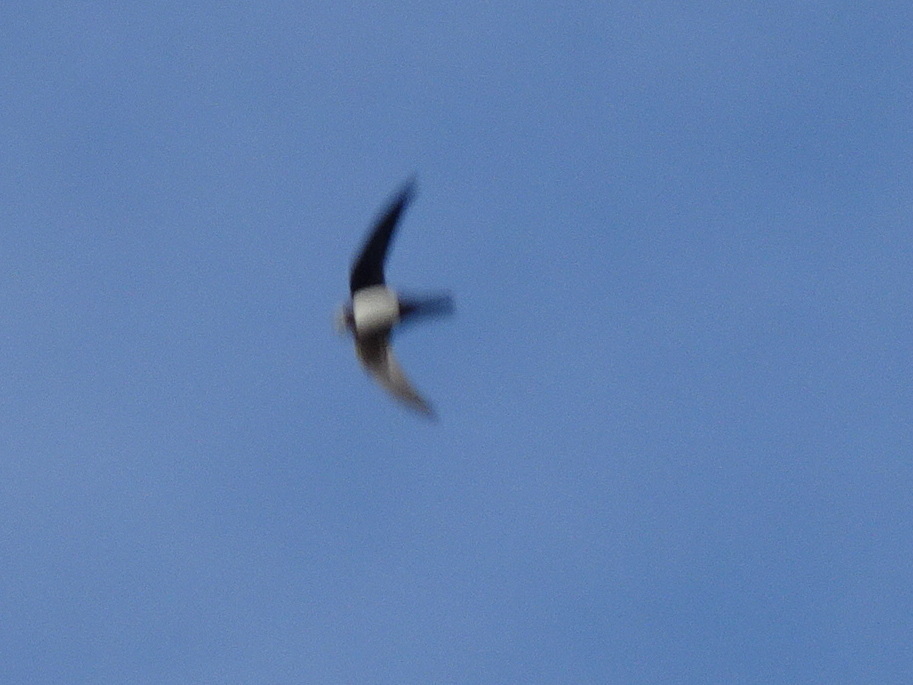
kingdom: Animalia
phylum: Chordata
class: Aves
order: Apodiformes
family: Apodidae
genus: Tachymarptis
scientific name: Tachymarptis melba
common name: Alpine swift
